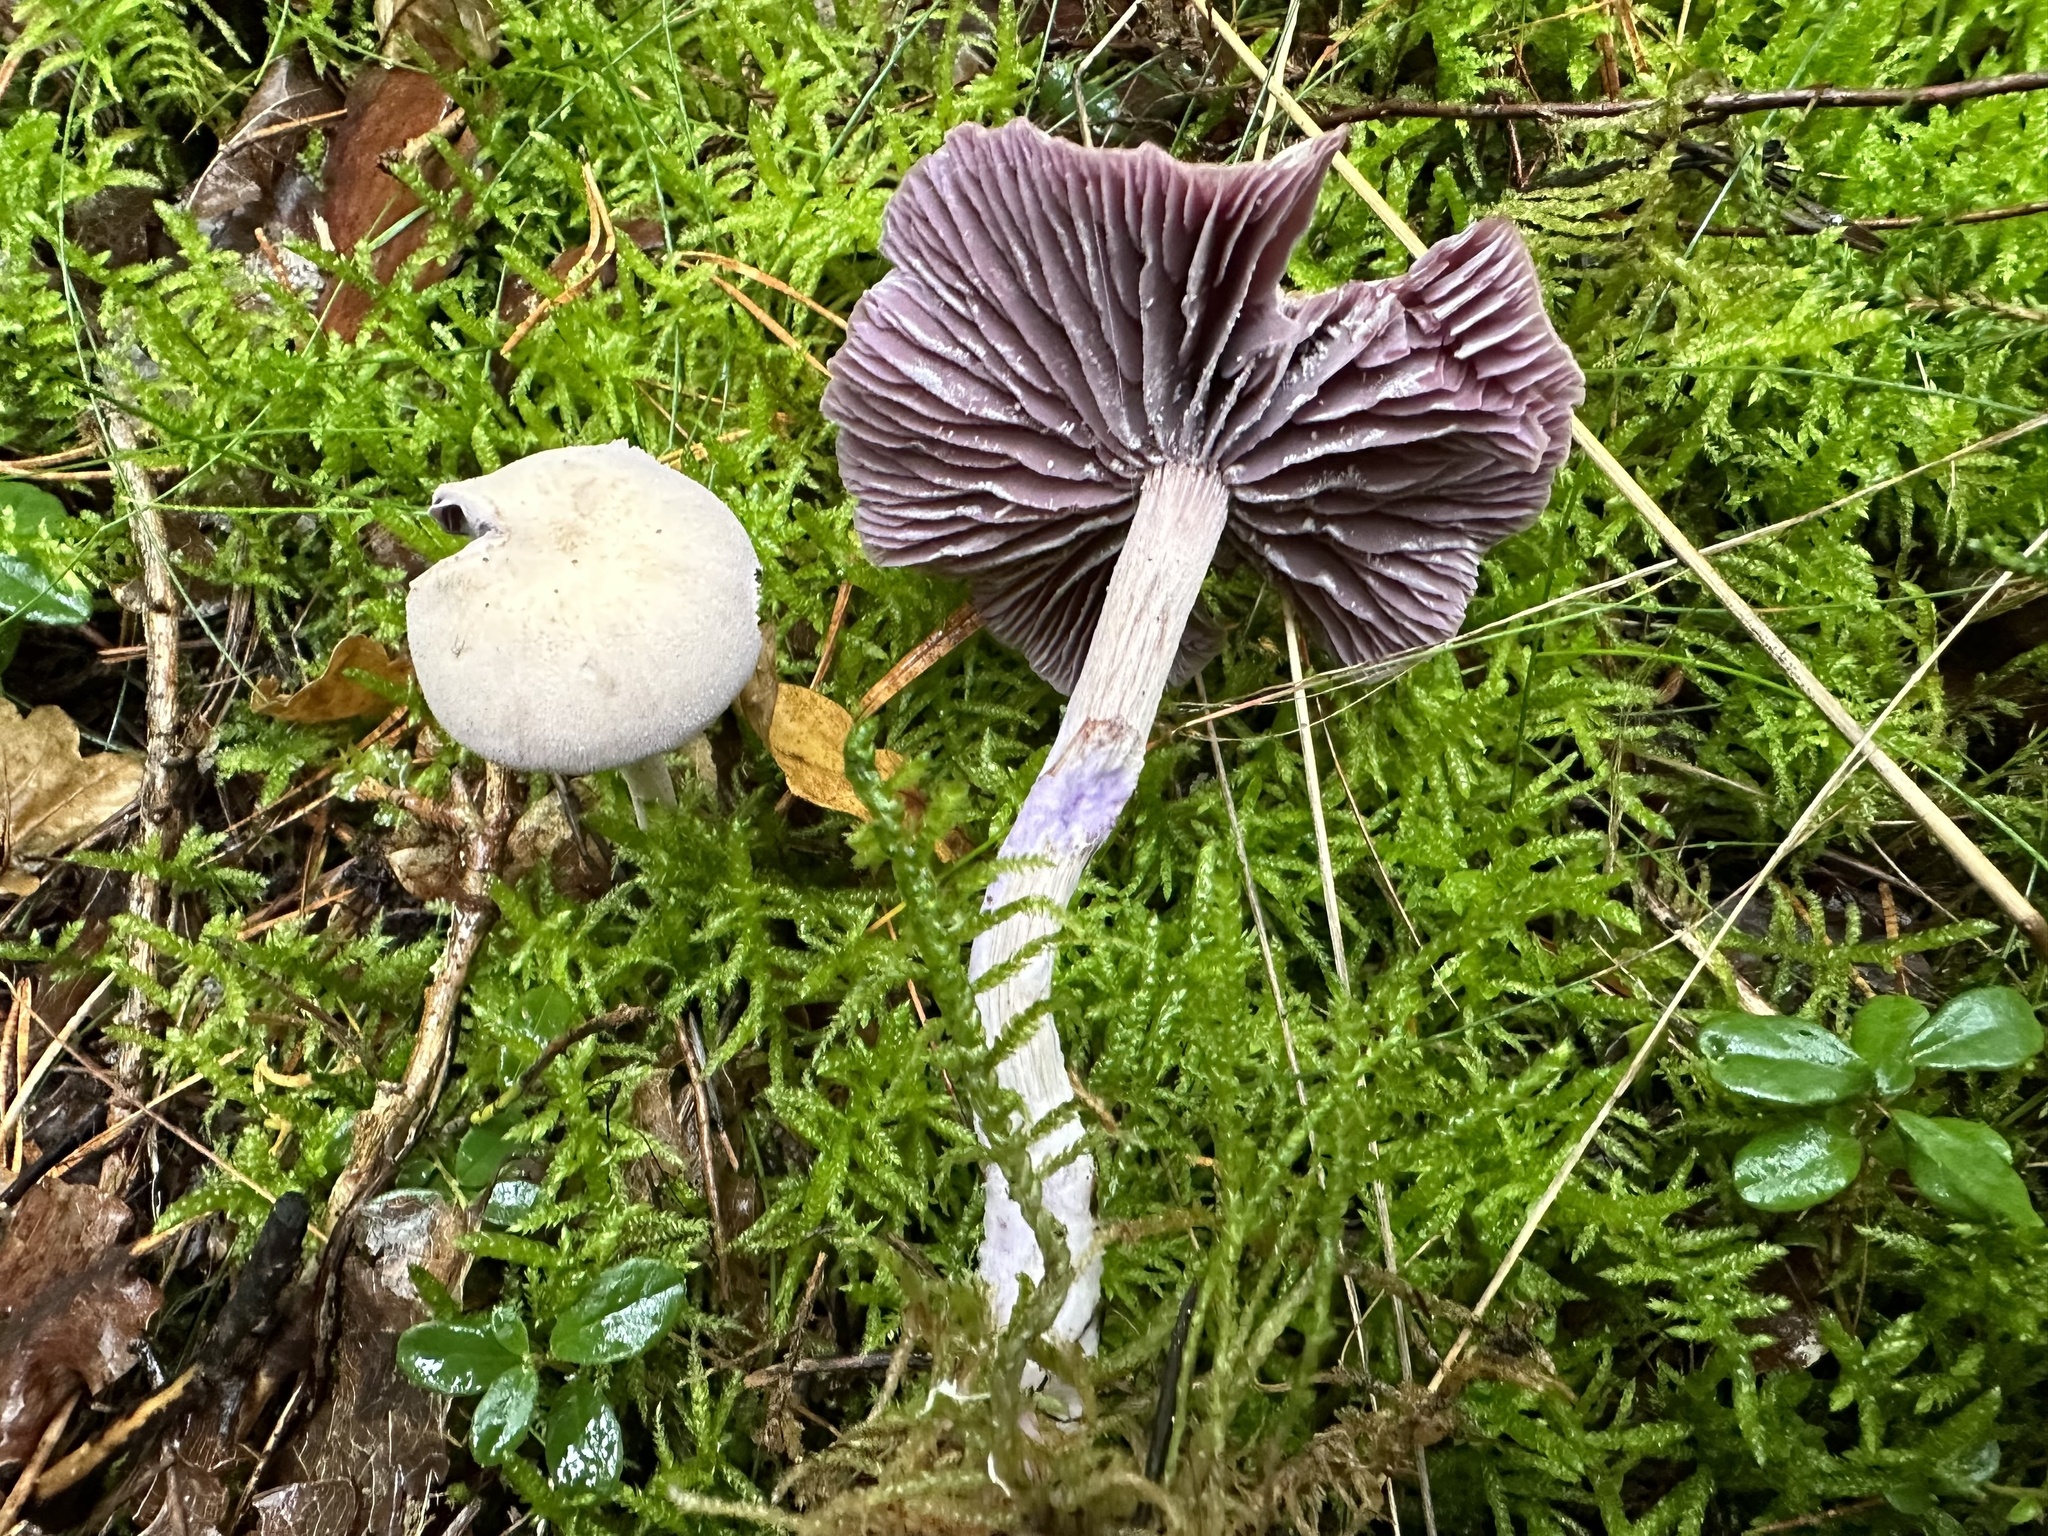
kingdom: Fungi
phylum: Basidiomycota
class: Agaricomycetes
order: Agaricales
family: Hydnangiaceae
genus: Laccaria
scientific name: Laccaria amethystina
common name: Amethyst deceiver
